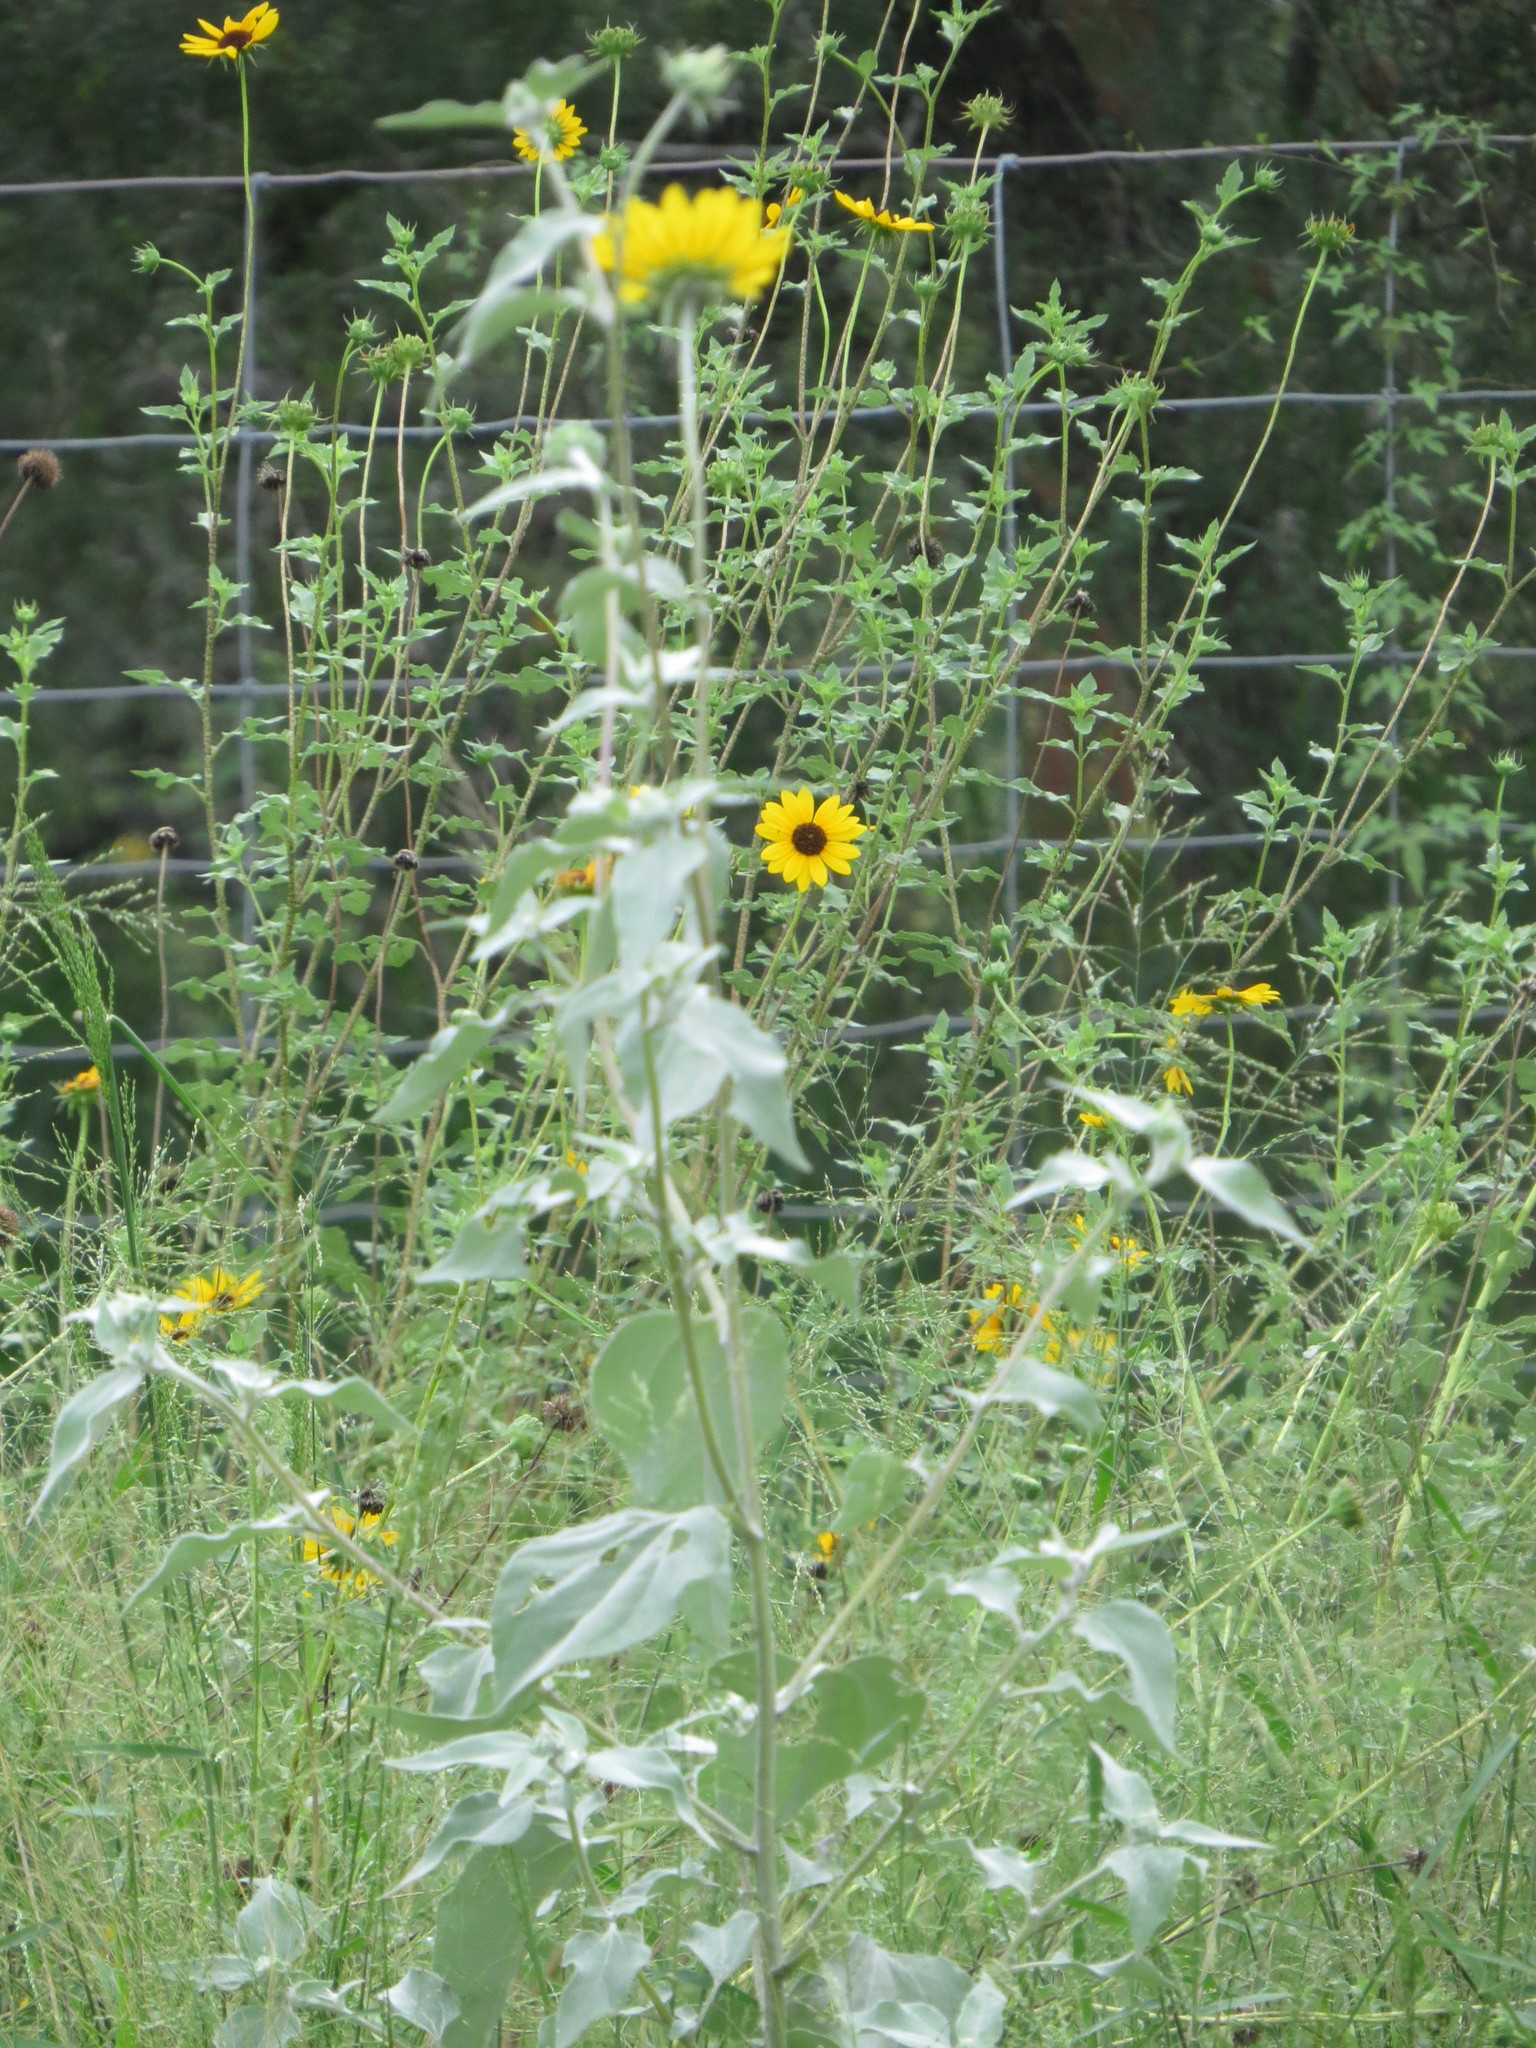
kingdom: Plantae
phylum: Tracheophyta
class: Magnoliopsida
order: Asterales
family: Asteraceae
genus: Helianthus
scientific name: Helianthus argophyllus
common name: Silverleaf sunflower
